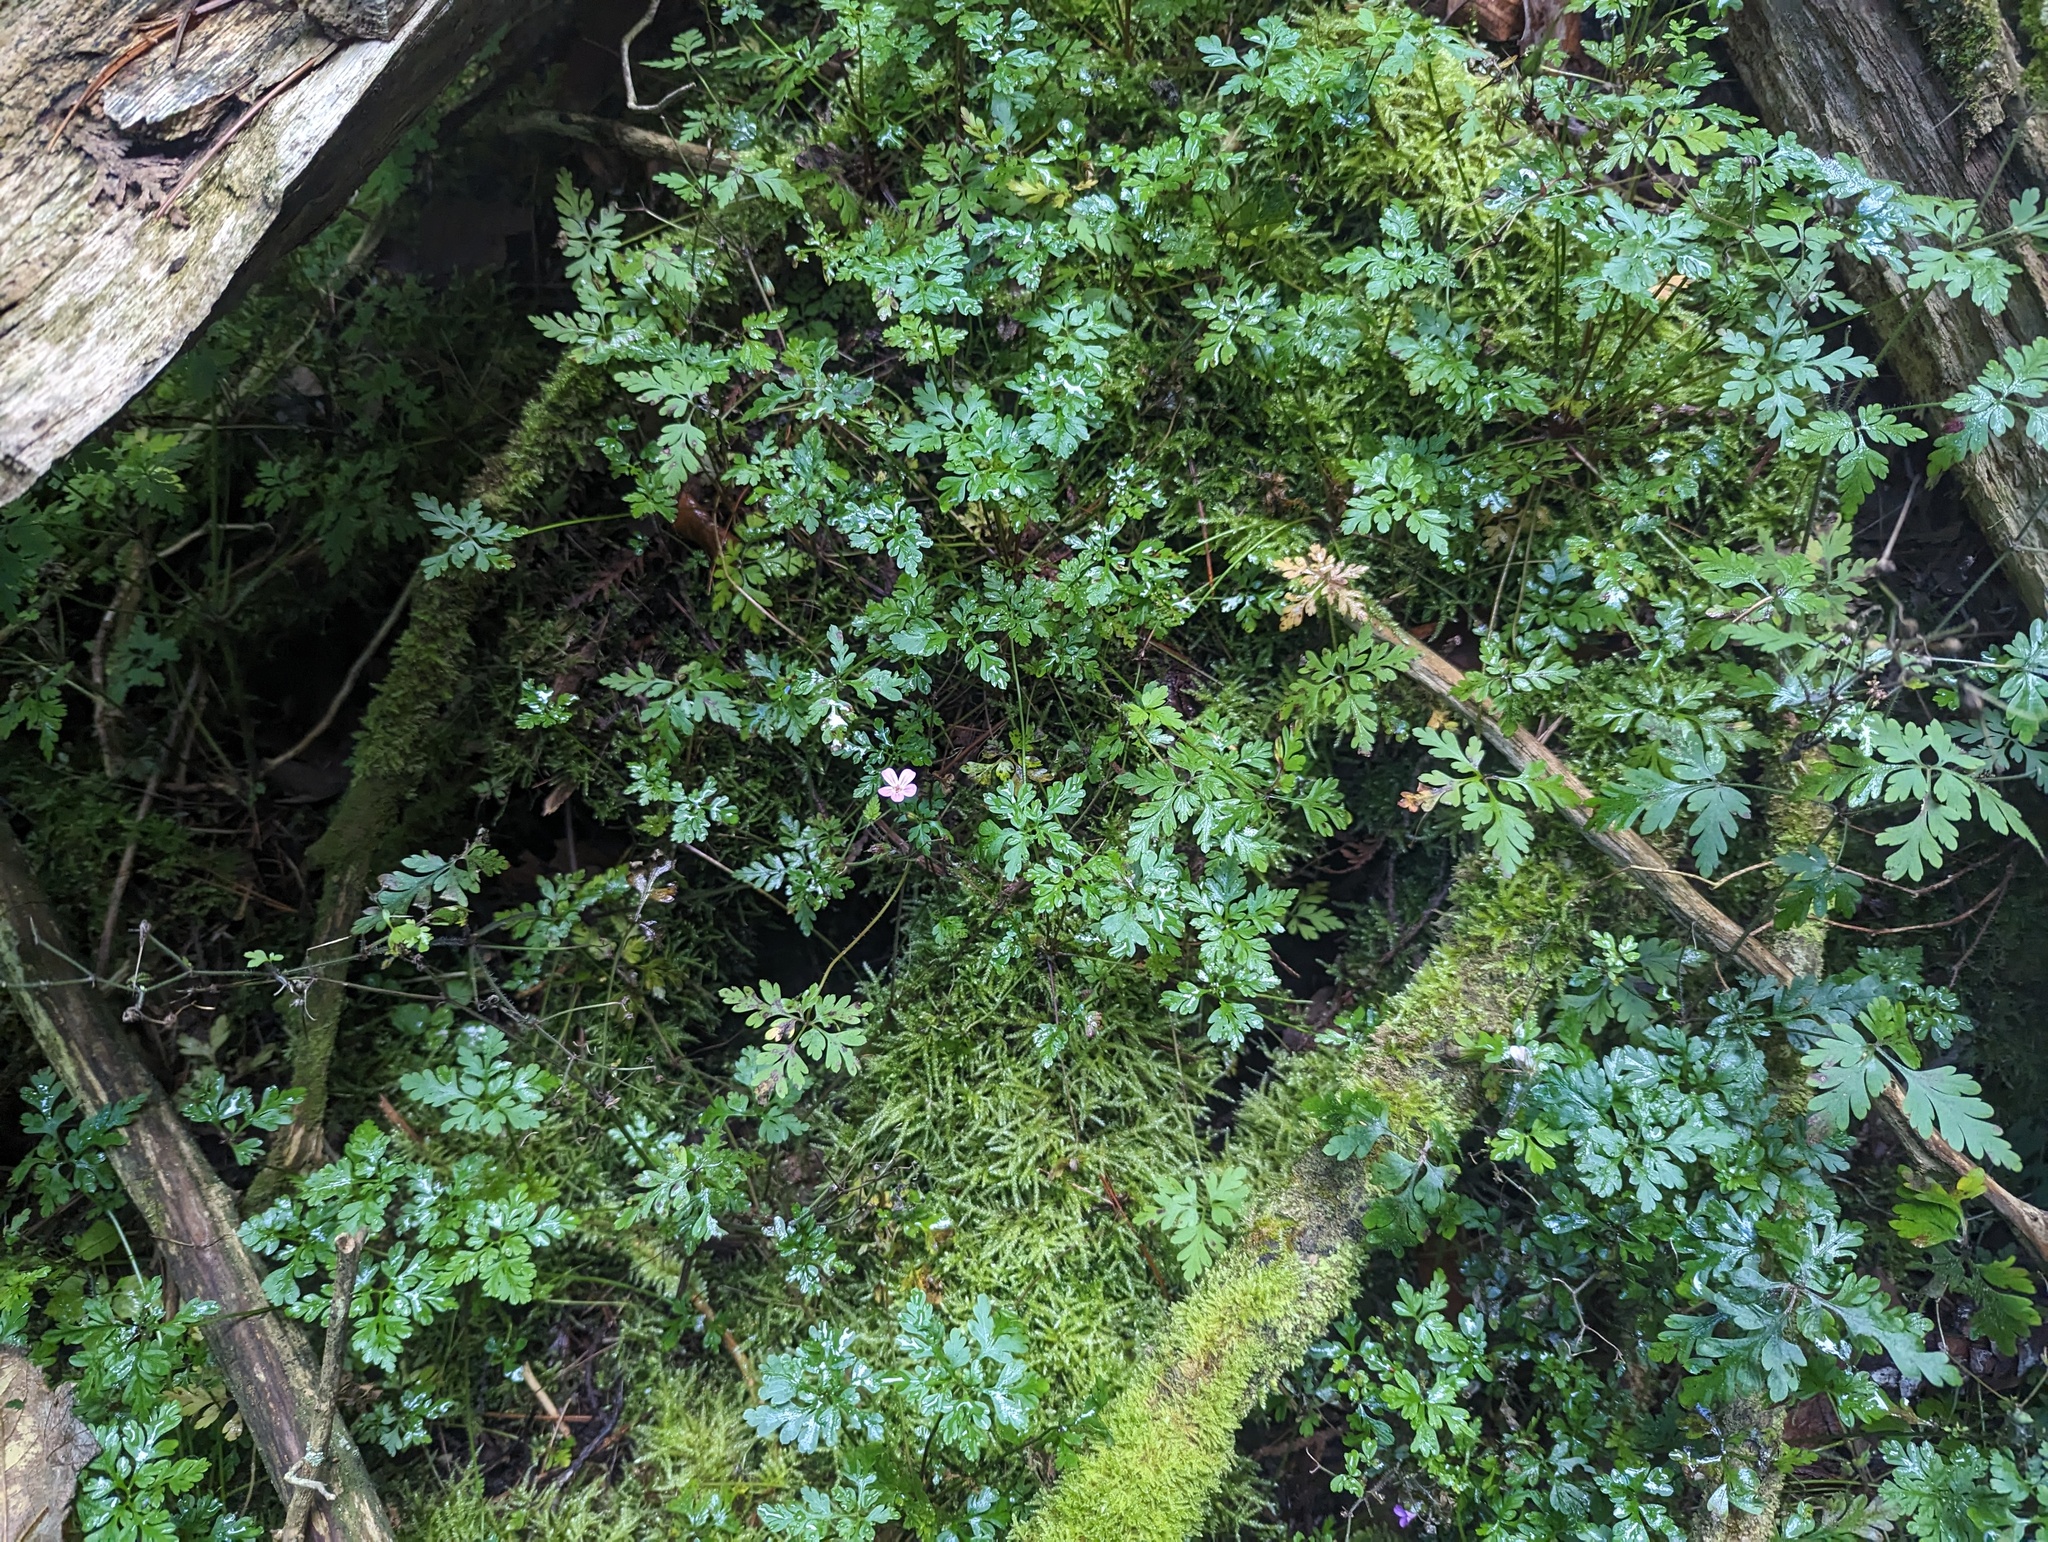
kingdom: Plantae
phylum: Tracheophyta
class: Magnoliopsida
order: Geraniales
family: Geraniaceae
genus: Geranium
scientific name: Geranium robertianum
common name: Herb-robert
